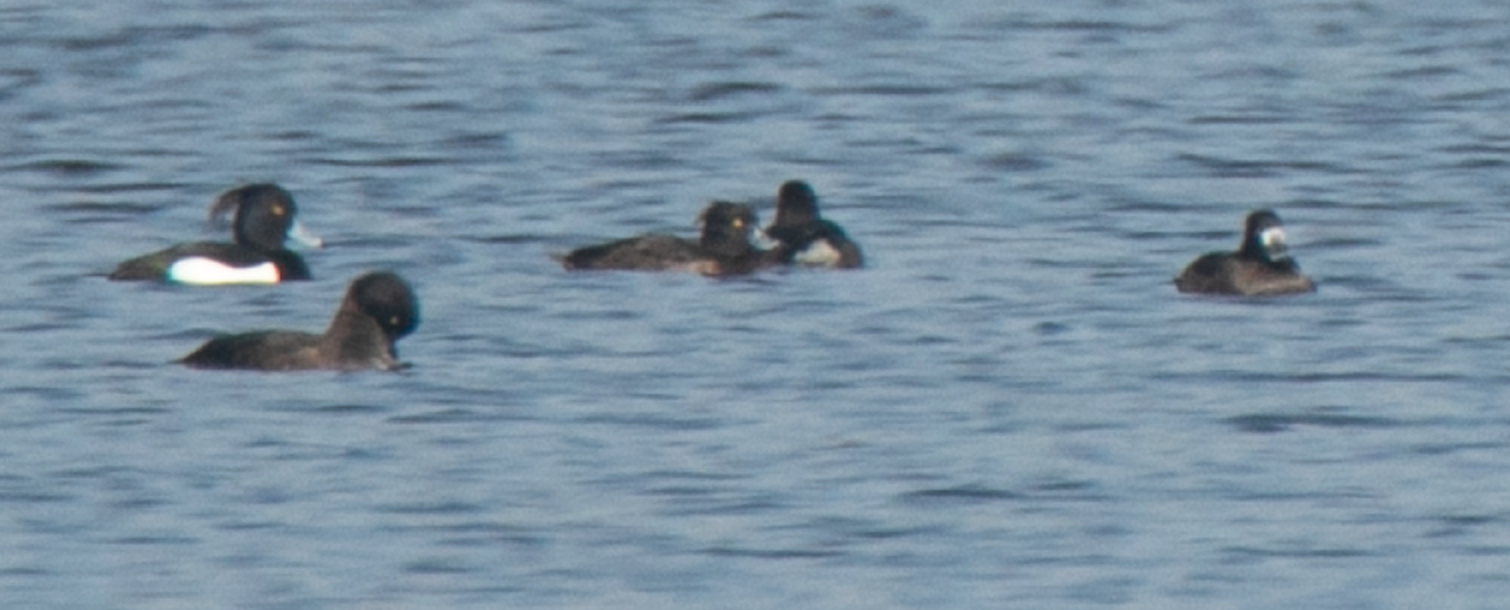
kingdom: Animalia
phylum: Chordata
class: Aves
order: Anseriformes
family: Anatidae
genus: Aythya
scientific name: Aythya fuligula
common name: Tufted duck
